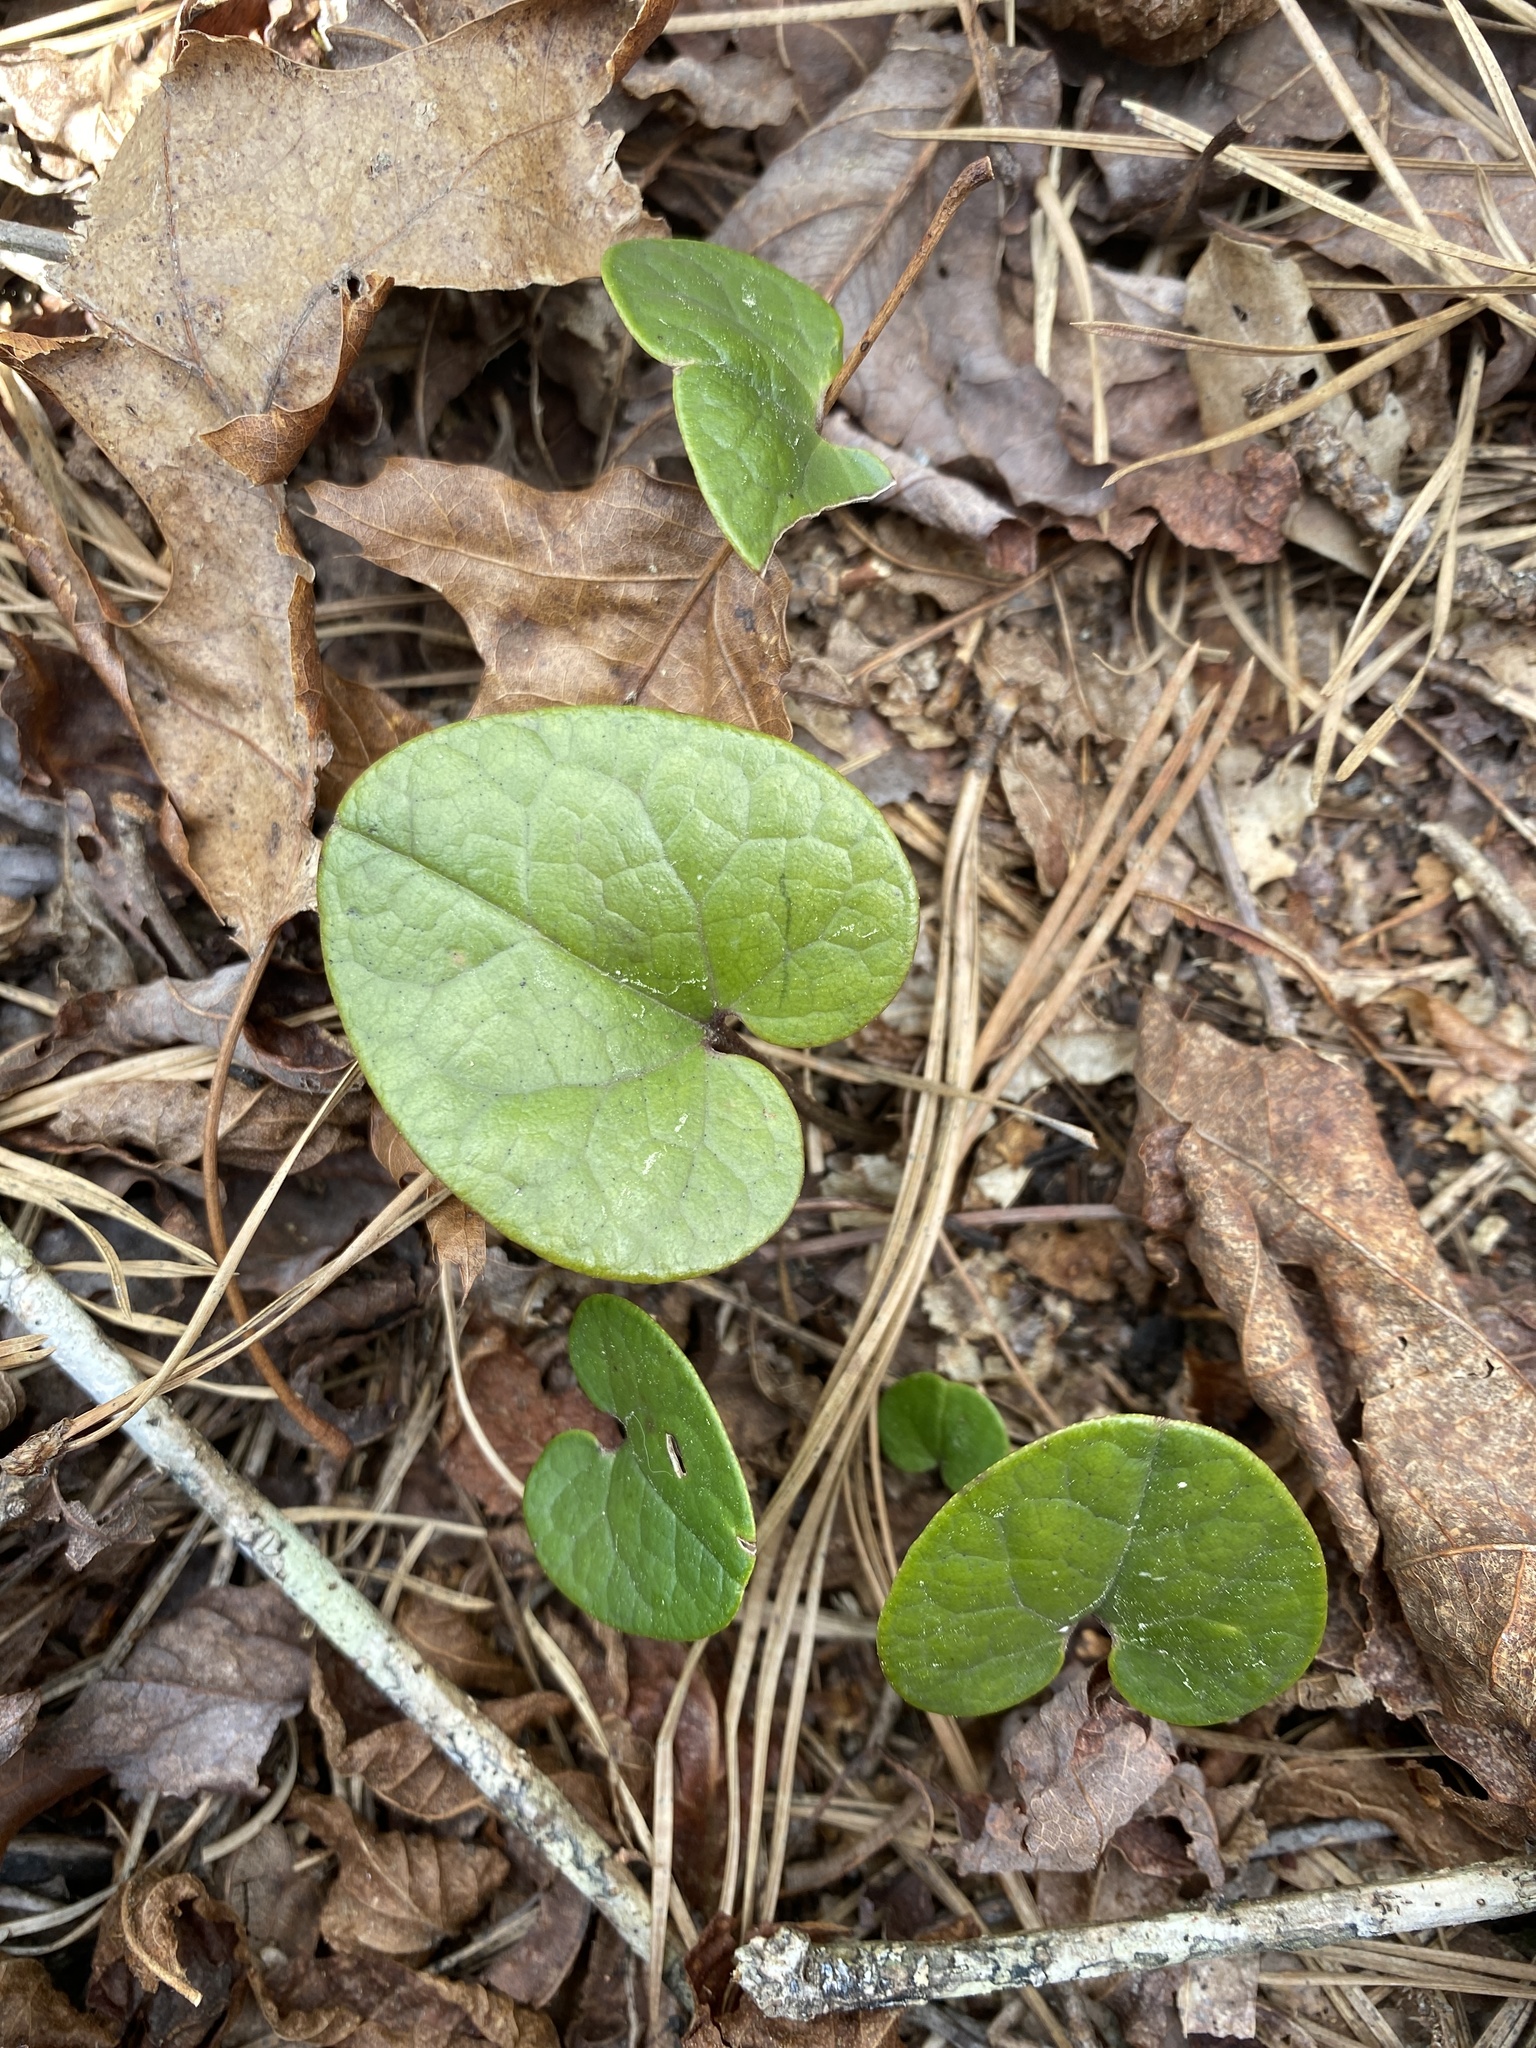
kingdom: Plantae
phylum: Tracheophyta
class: Magnoliopsida
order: Piperales
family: Aristolochiaceae
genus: Hexastylis
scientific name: Hexastylis rhombiformis
